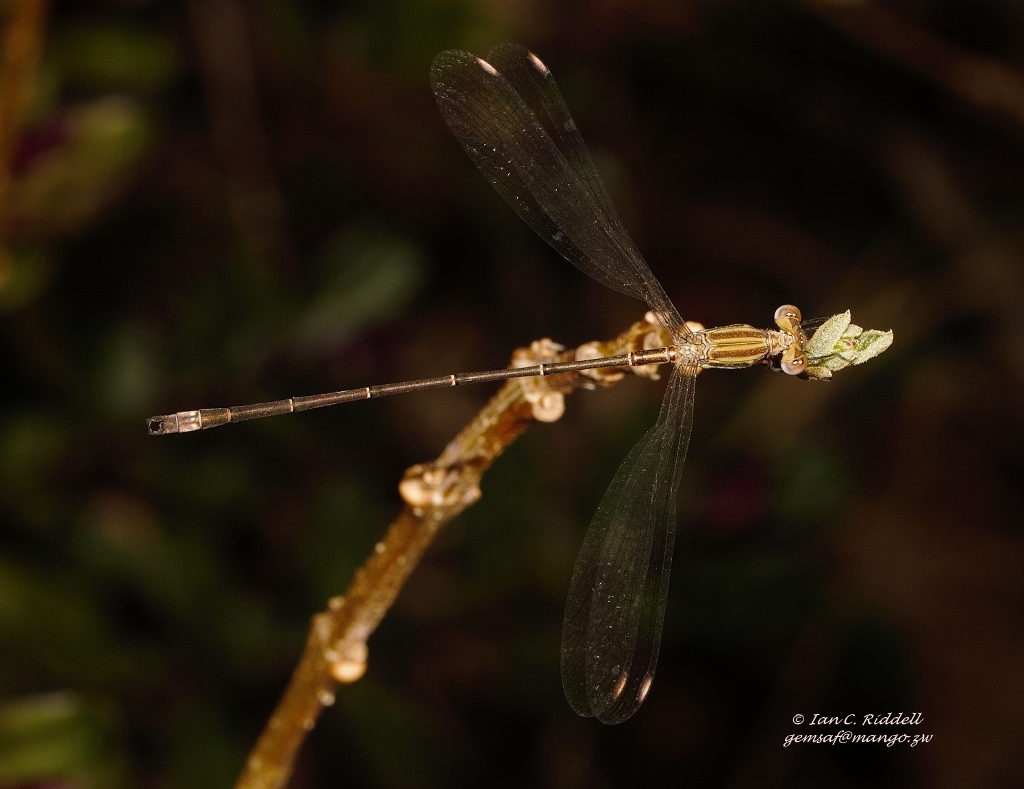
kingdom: Animalia
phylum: Arthropoda
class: Insecta
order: Odonata
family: Lestidae
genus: Lestes
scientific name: Lestes virgatus
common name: Smoky spreadwing
